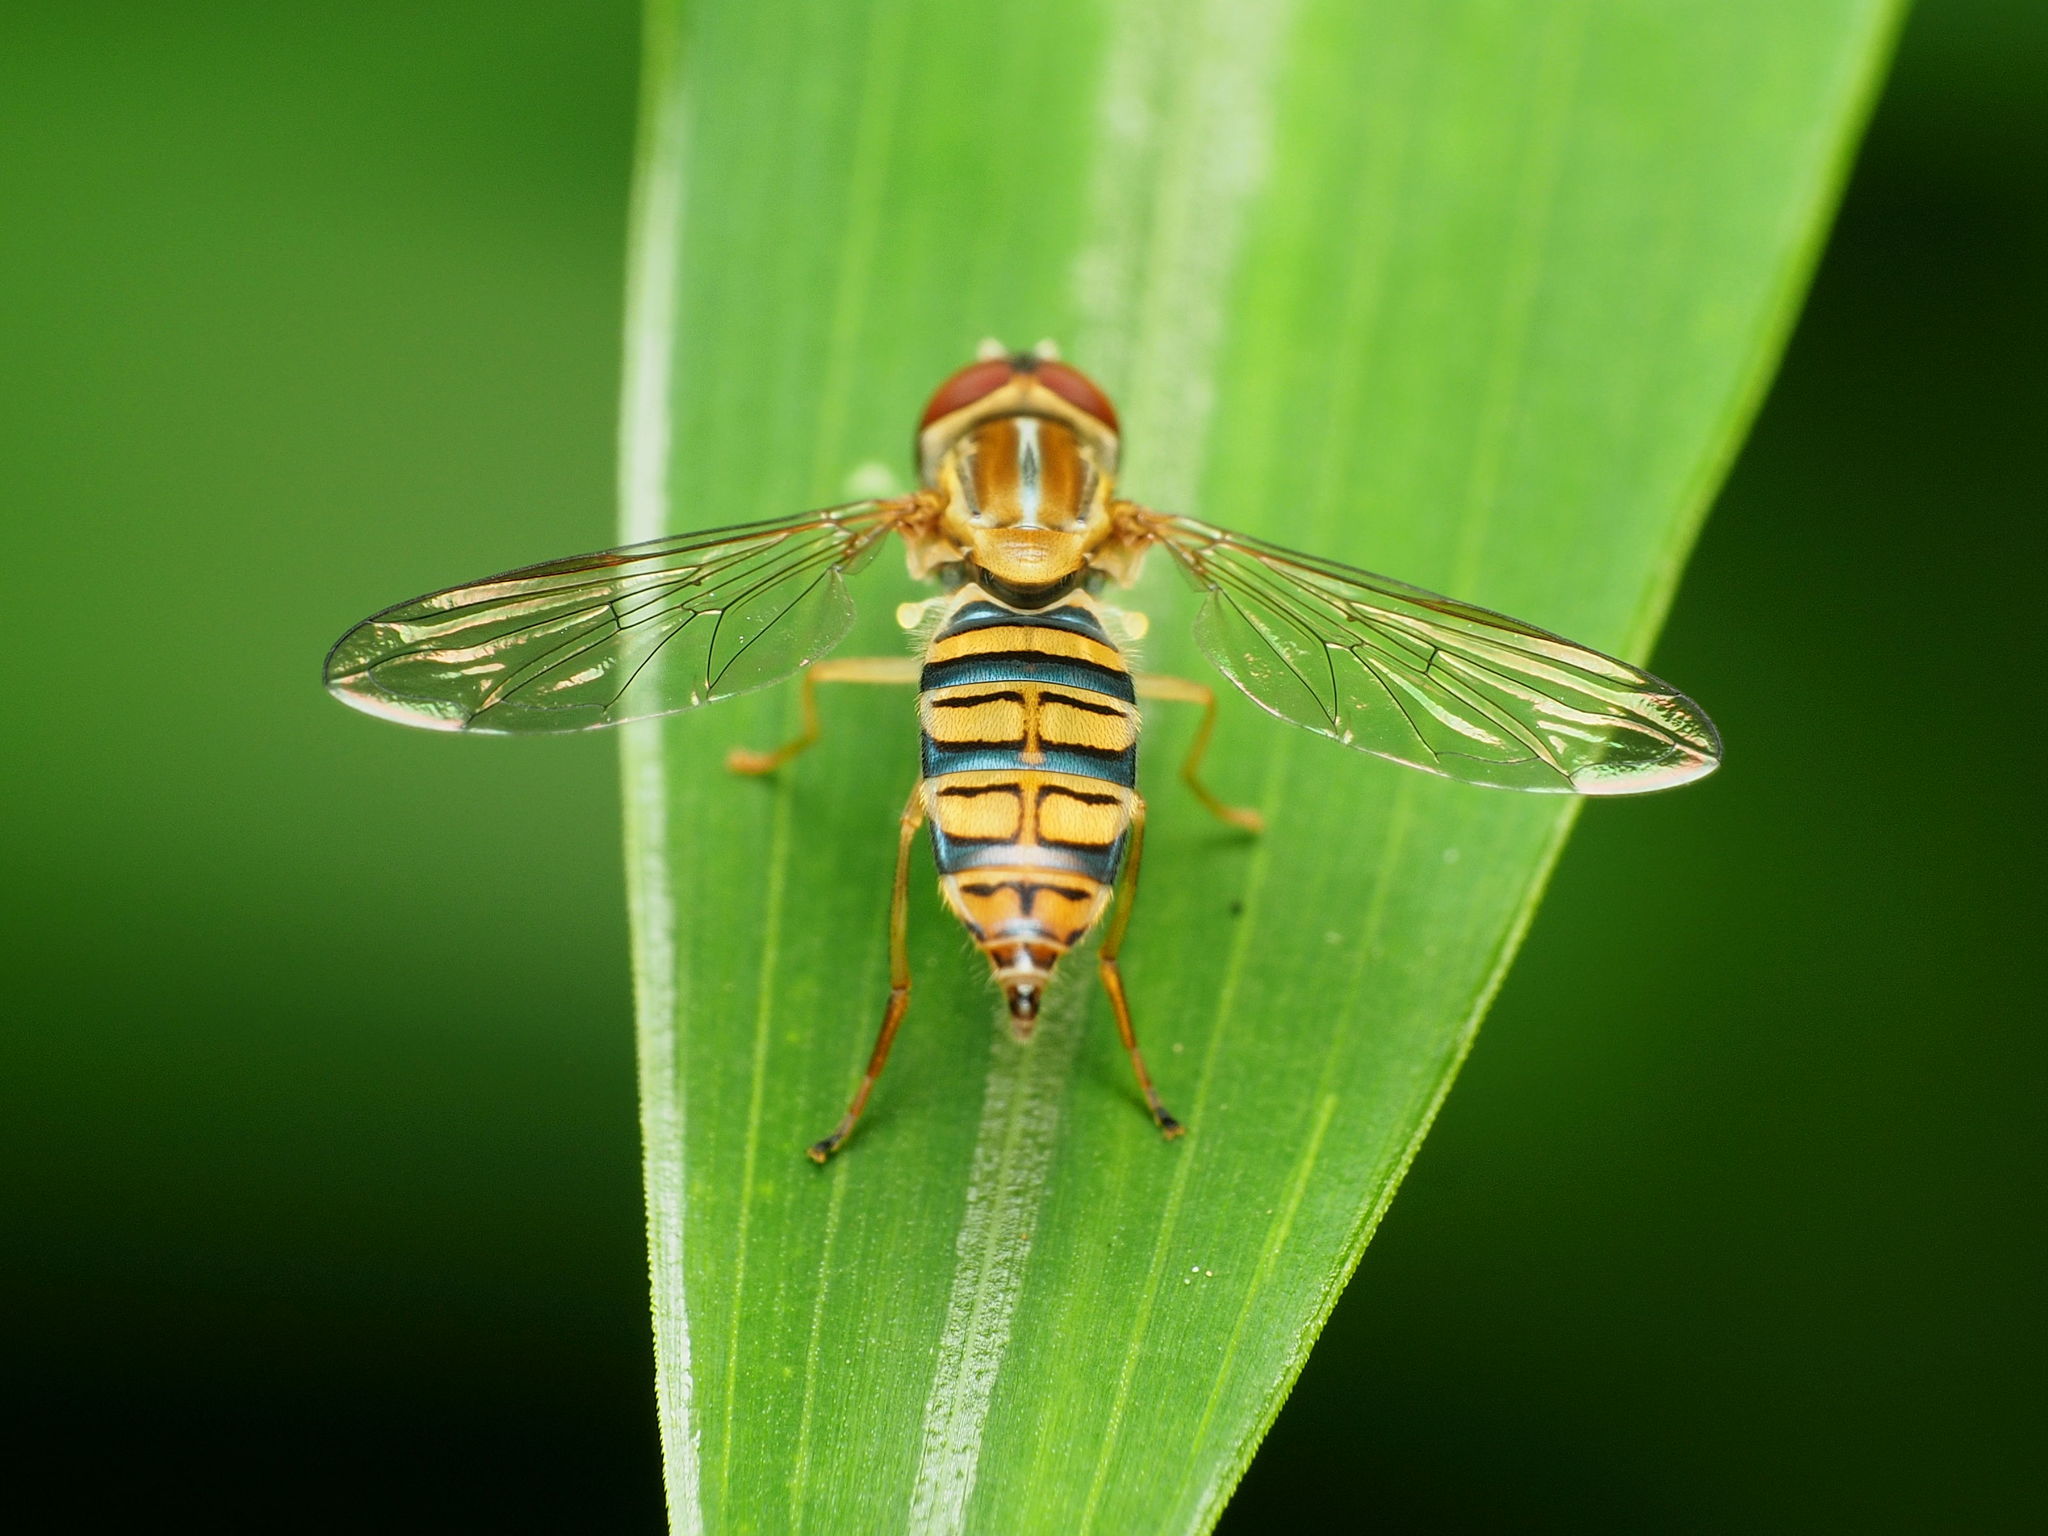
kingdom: Animalia
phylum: Arthropoda
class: Insecta
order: Diptera
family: Syrphidae
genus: Toxomerus
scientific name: Toxomerus politus
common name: Maize calligrapher
